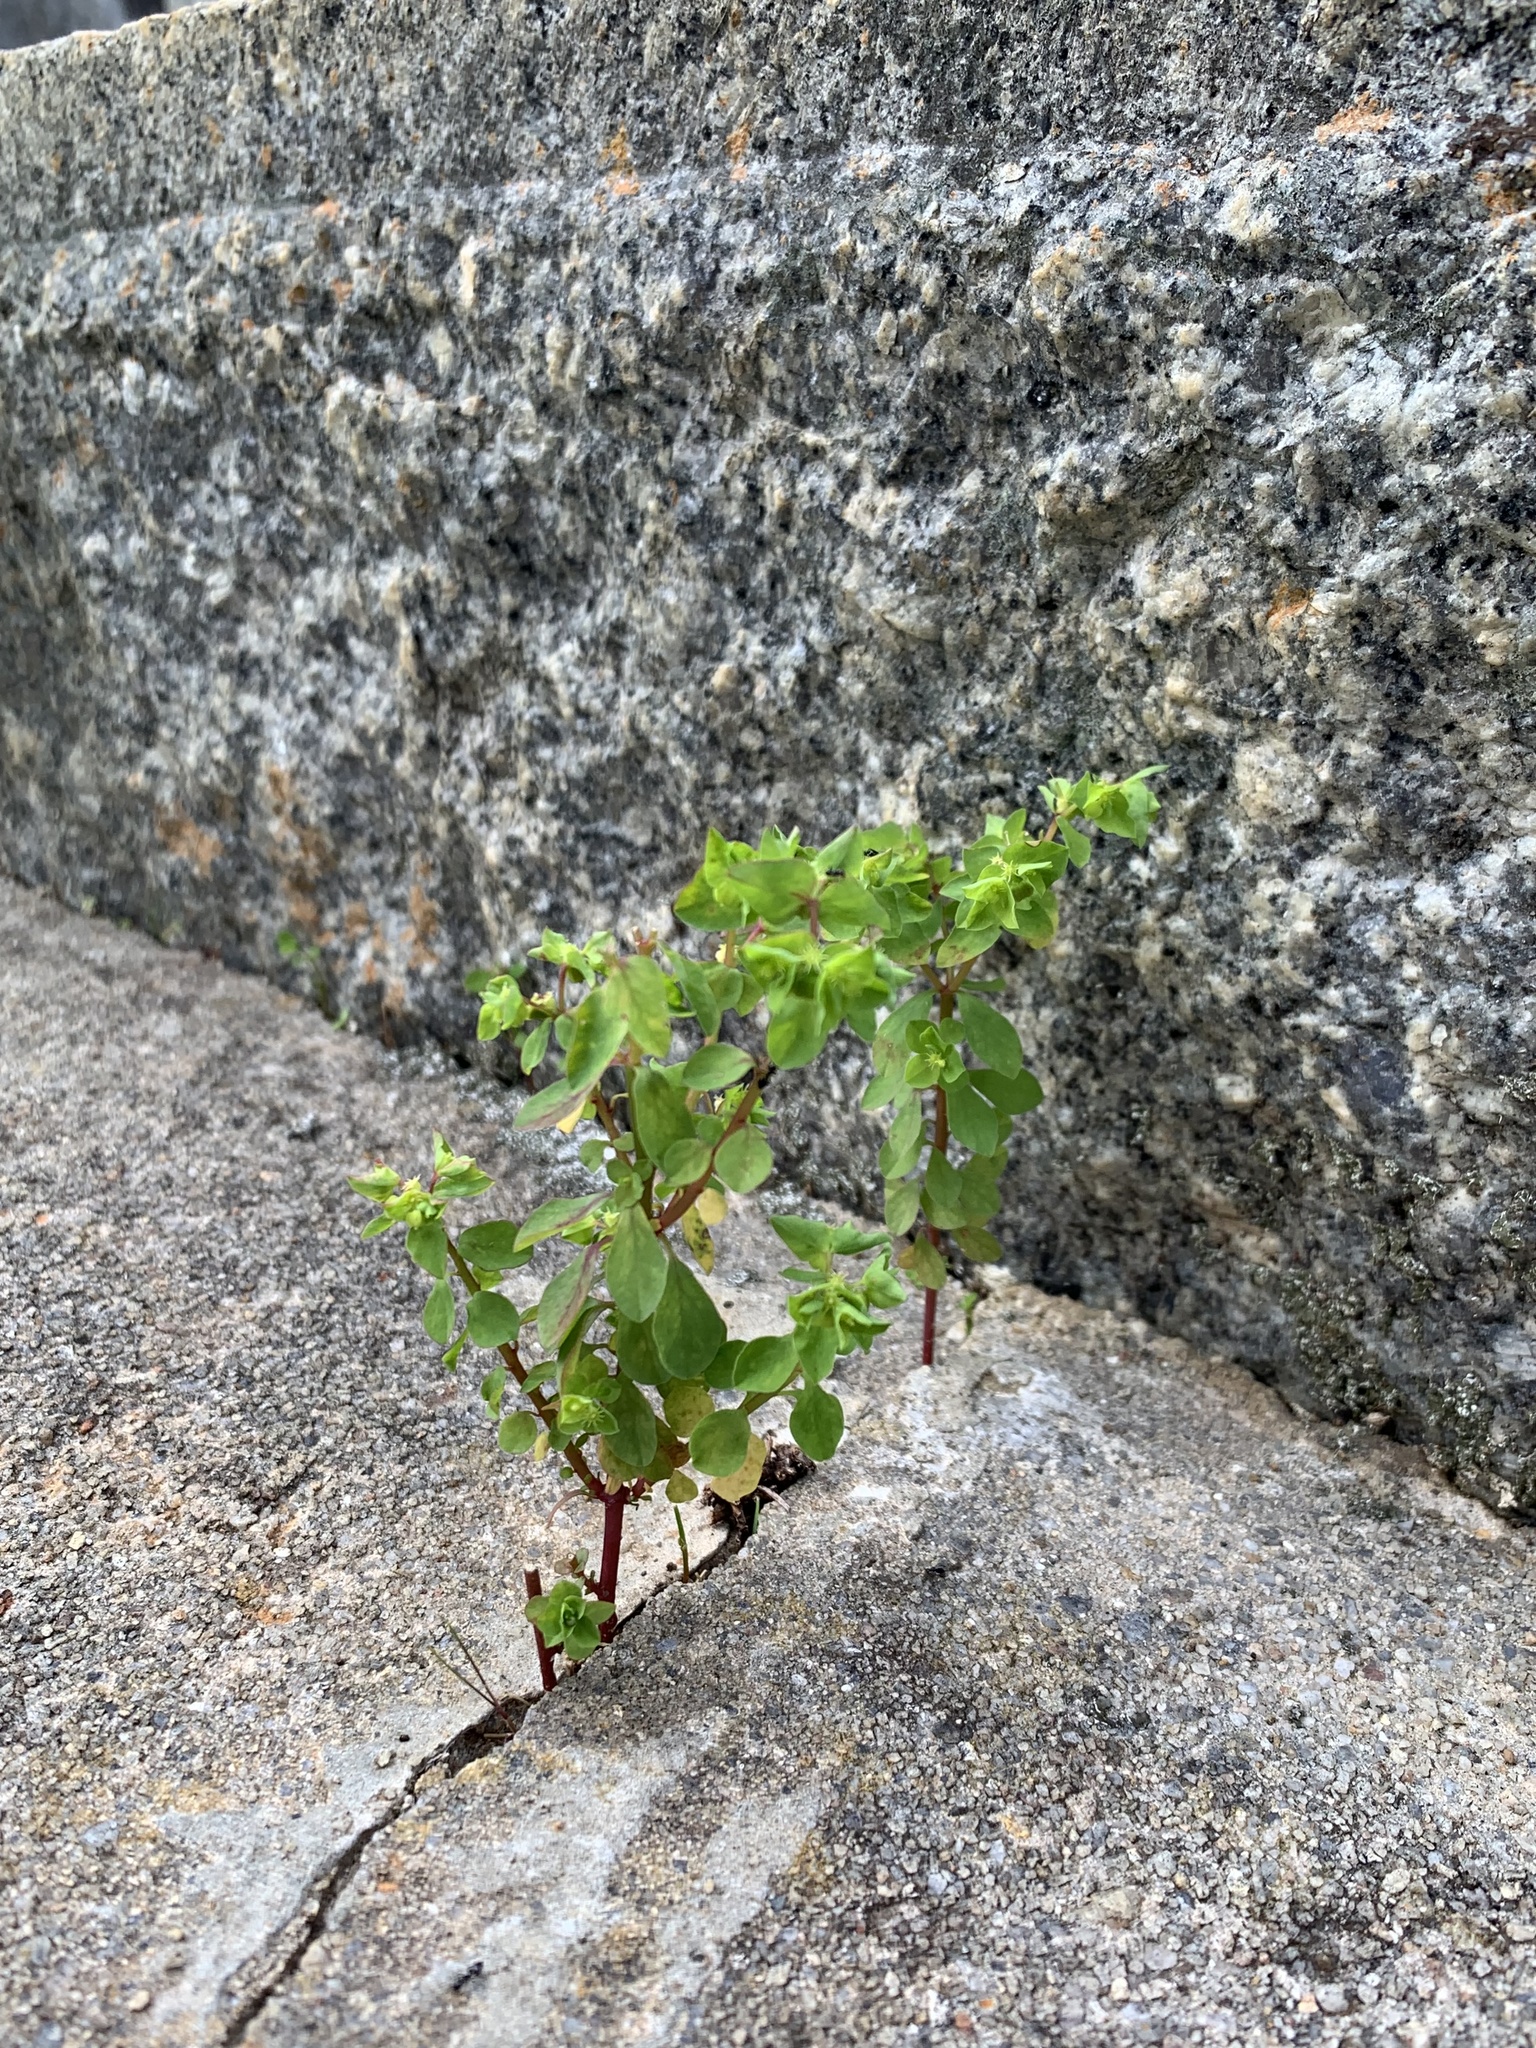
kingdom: Plantae
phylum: Tracheophyta
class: Magnoliopsida
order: Malpighiales
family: Euphorbiaceae
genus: Euphorbia
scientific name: Euphorbia peplus
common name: Petty spurge
